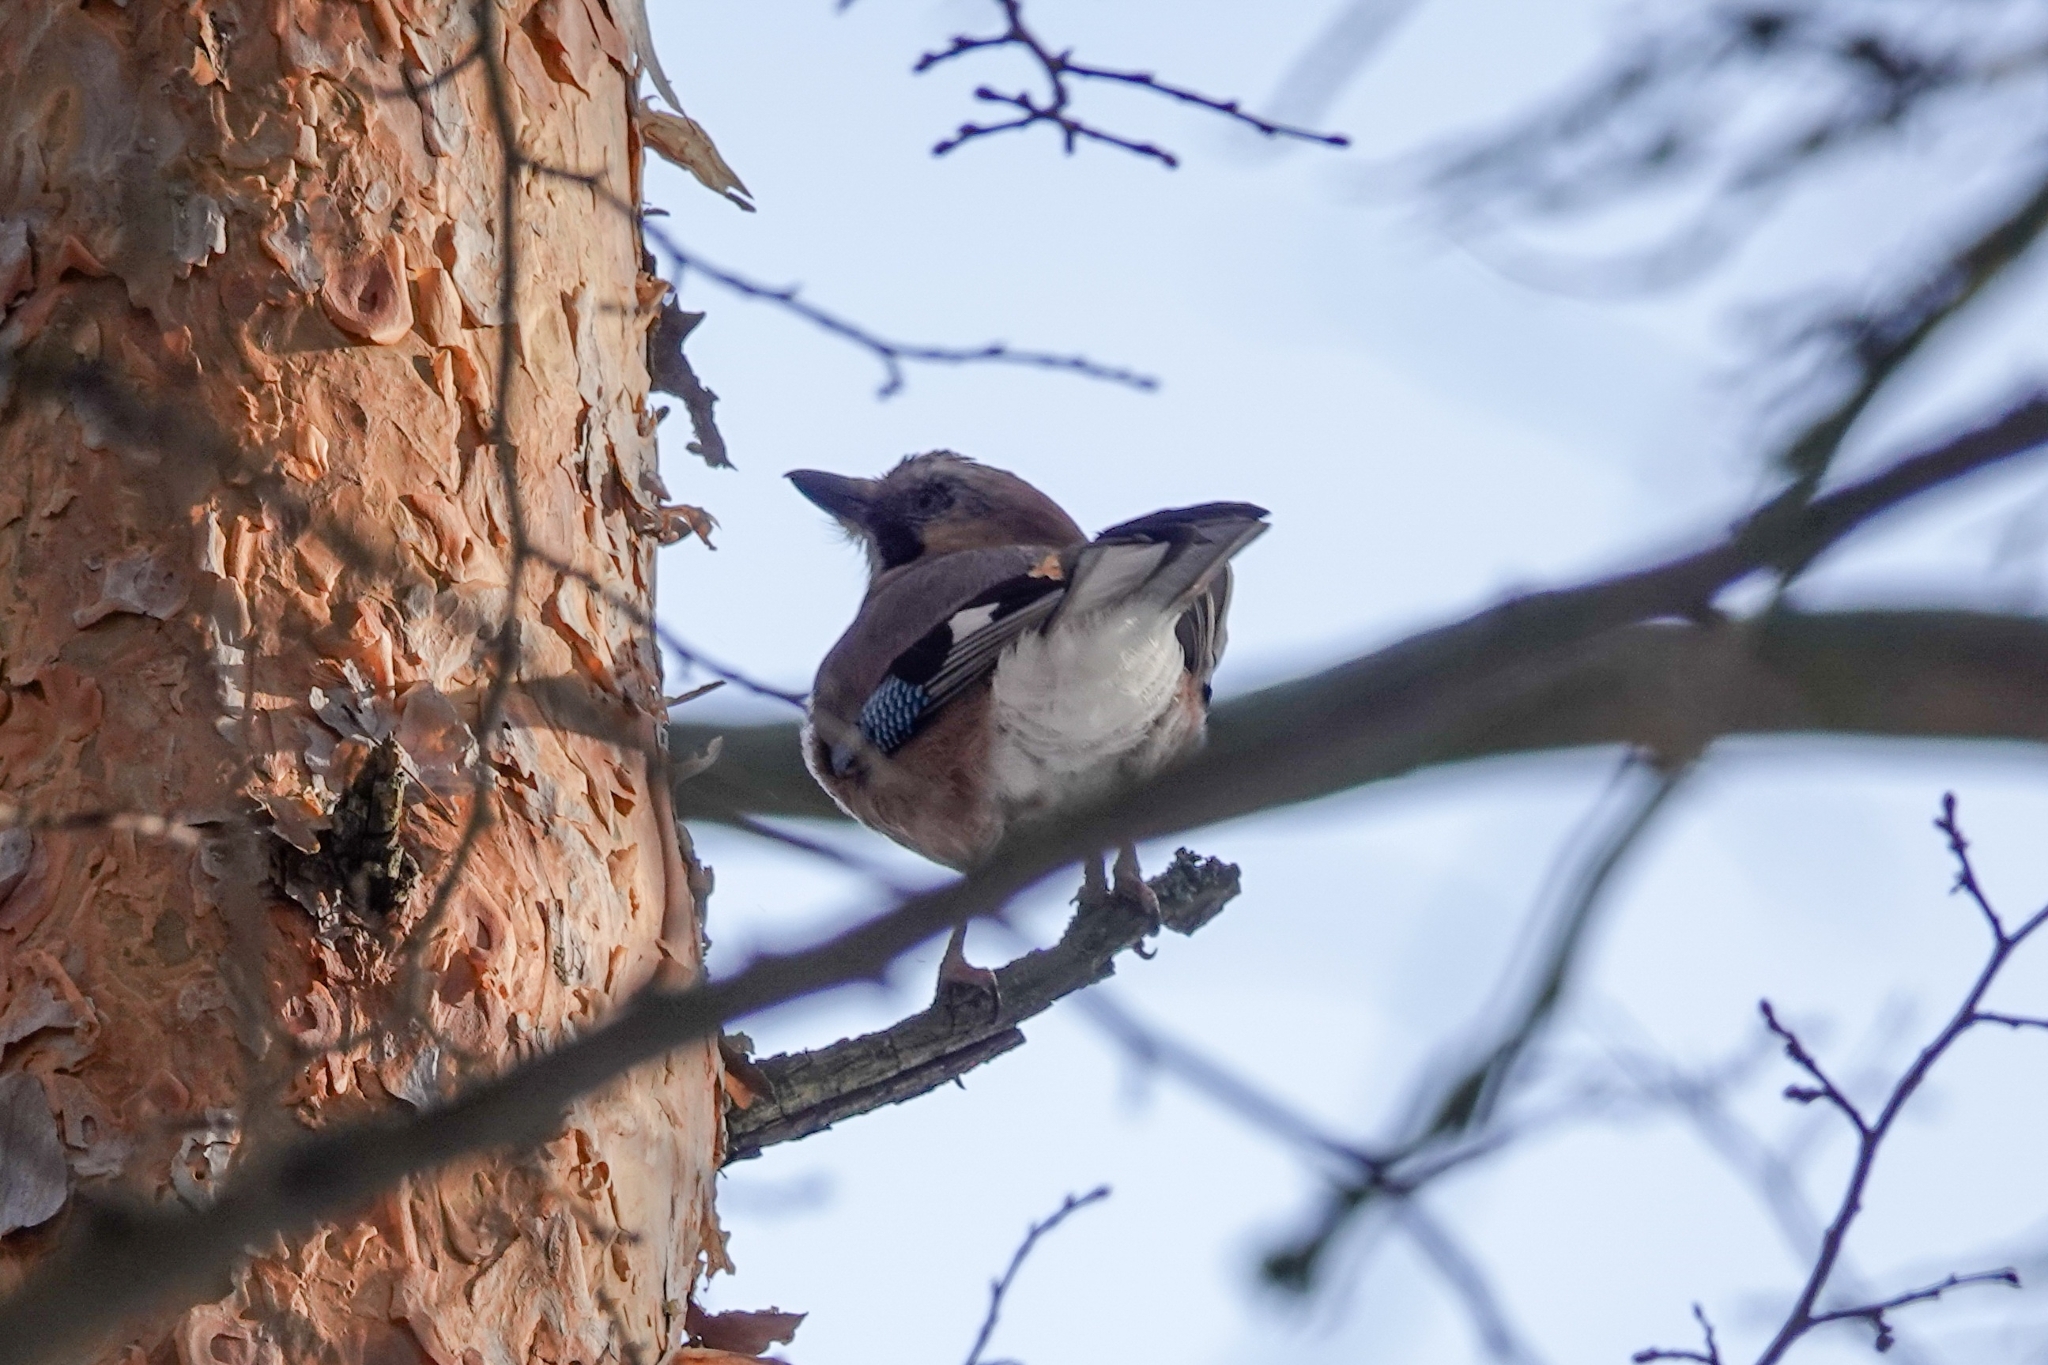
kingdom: Animalia
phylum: Chordata
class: Aves
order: Passeriformes
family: Corvidae
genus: Garrulus
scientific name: Garrulus glandarius
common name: Eurasian jay
